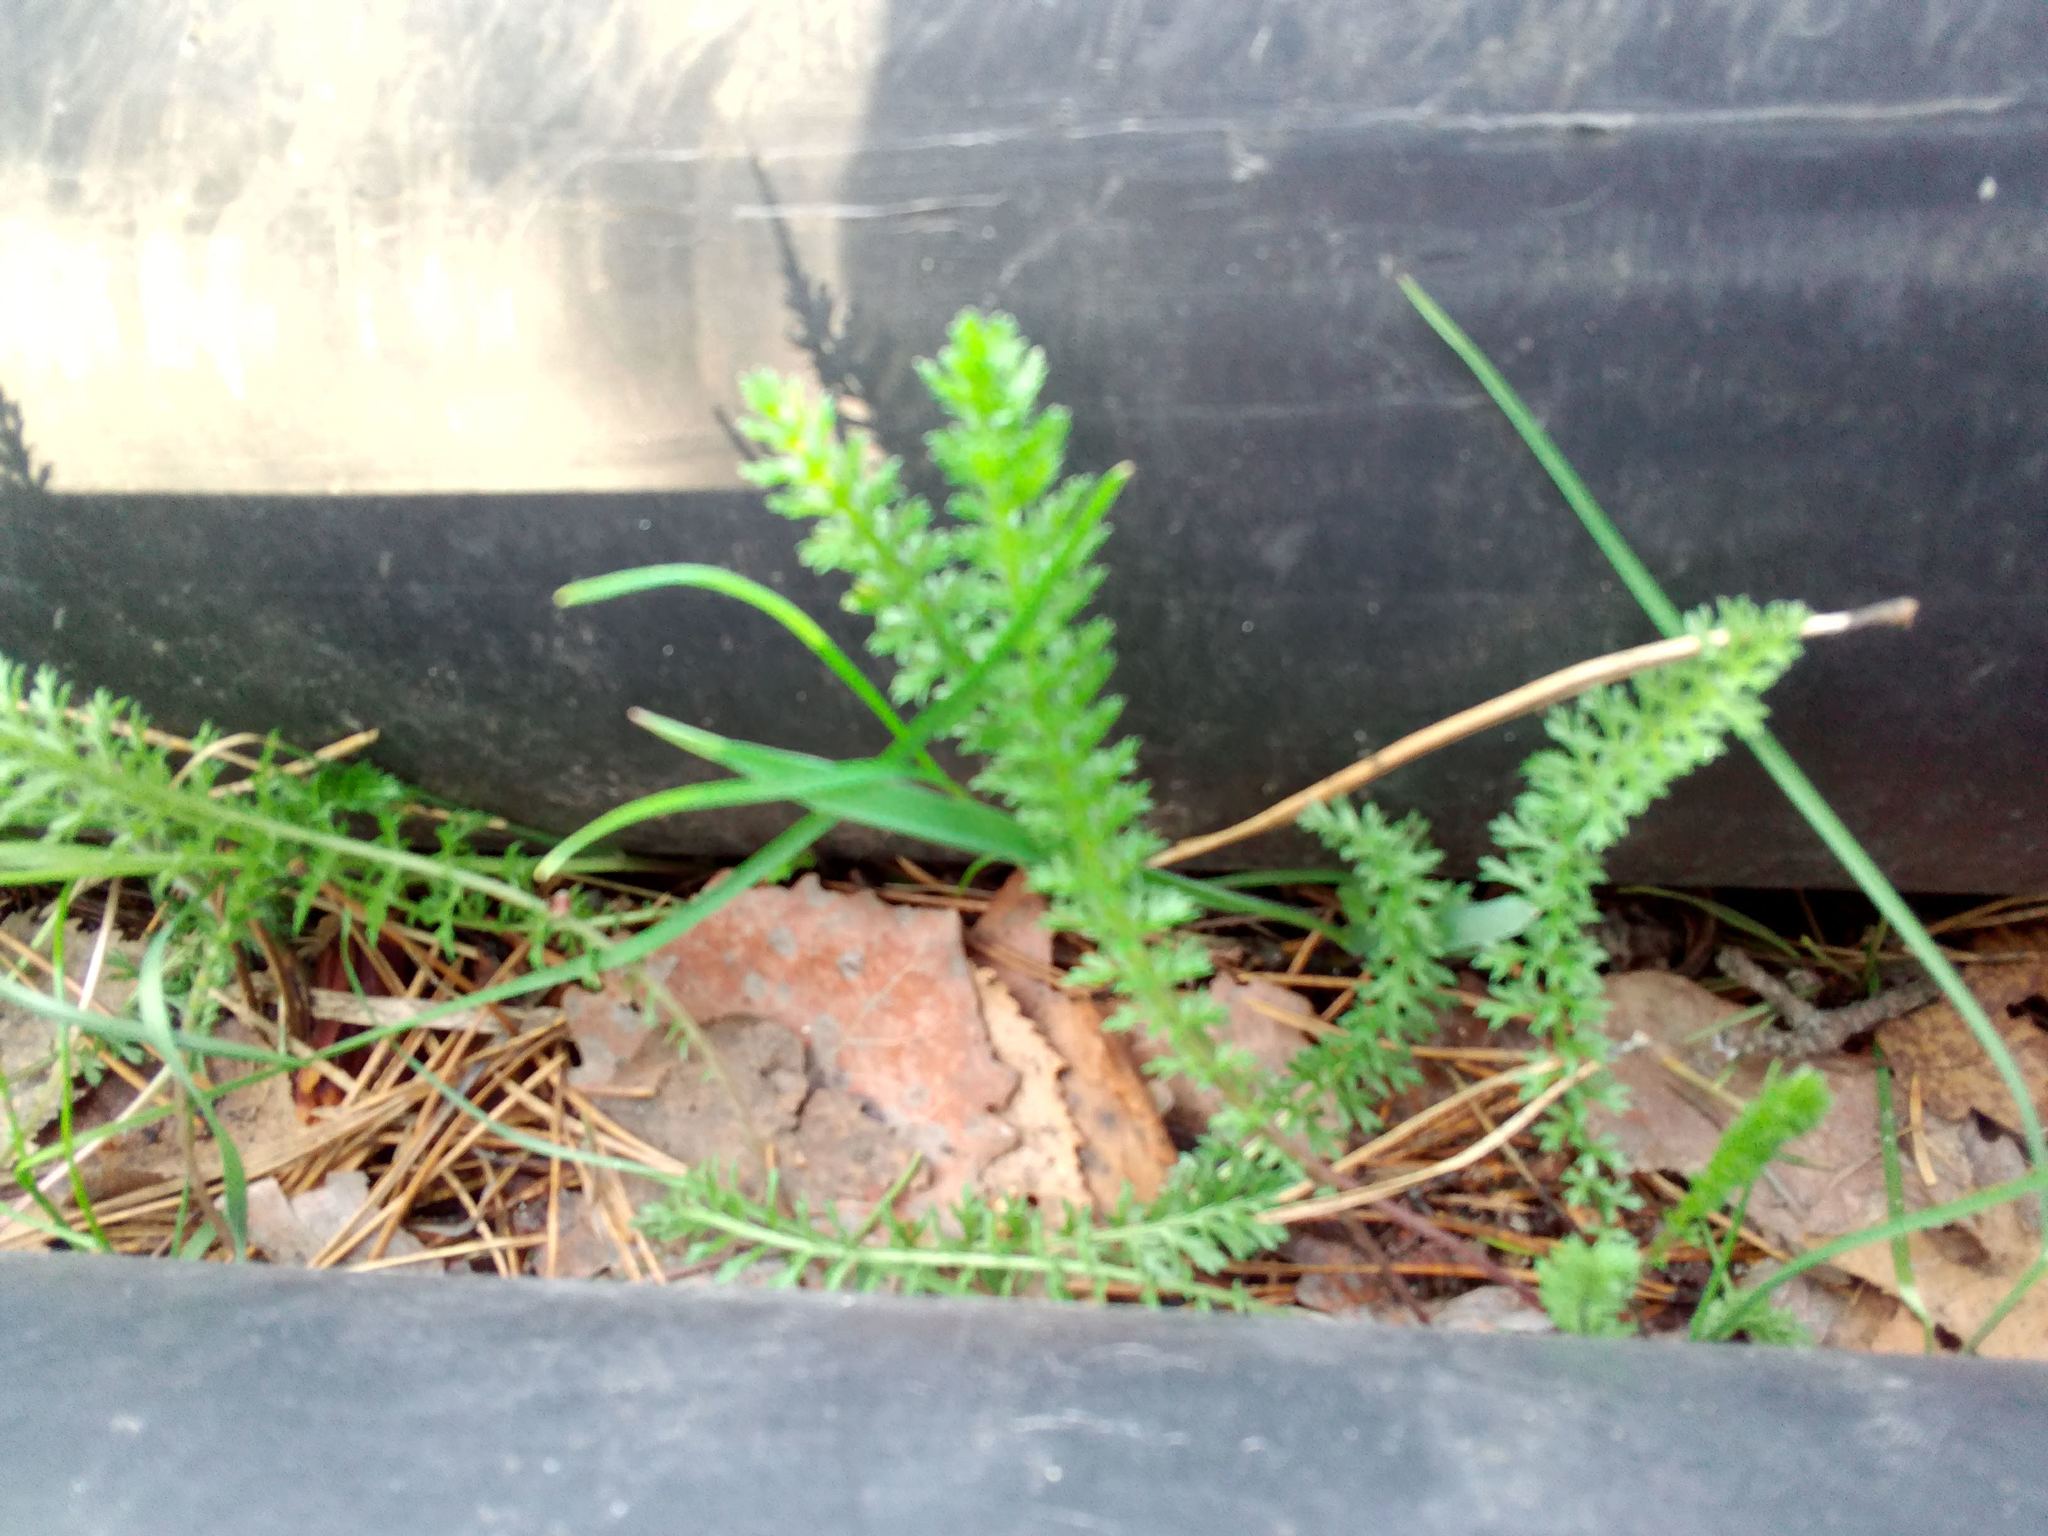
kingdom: Plantae
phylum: Tracheophyta
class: Magnoliopsida
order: Asterales
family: Asteraceae
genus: Achillea
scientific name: Achillea millefolium
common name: Yarrow
